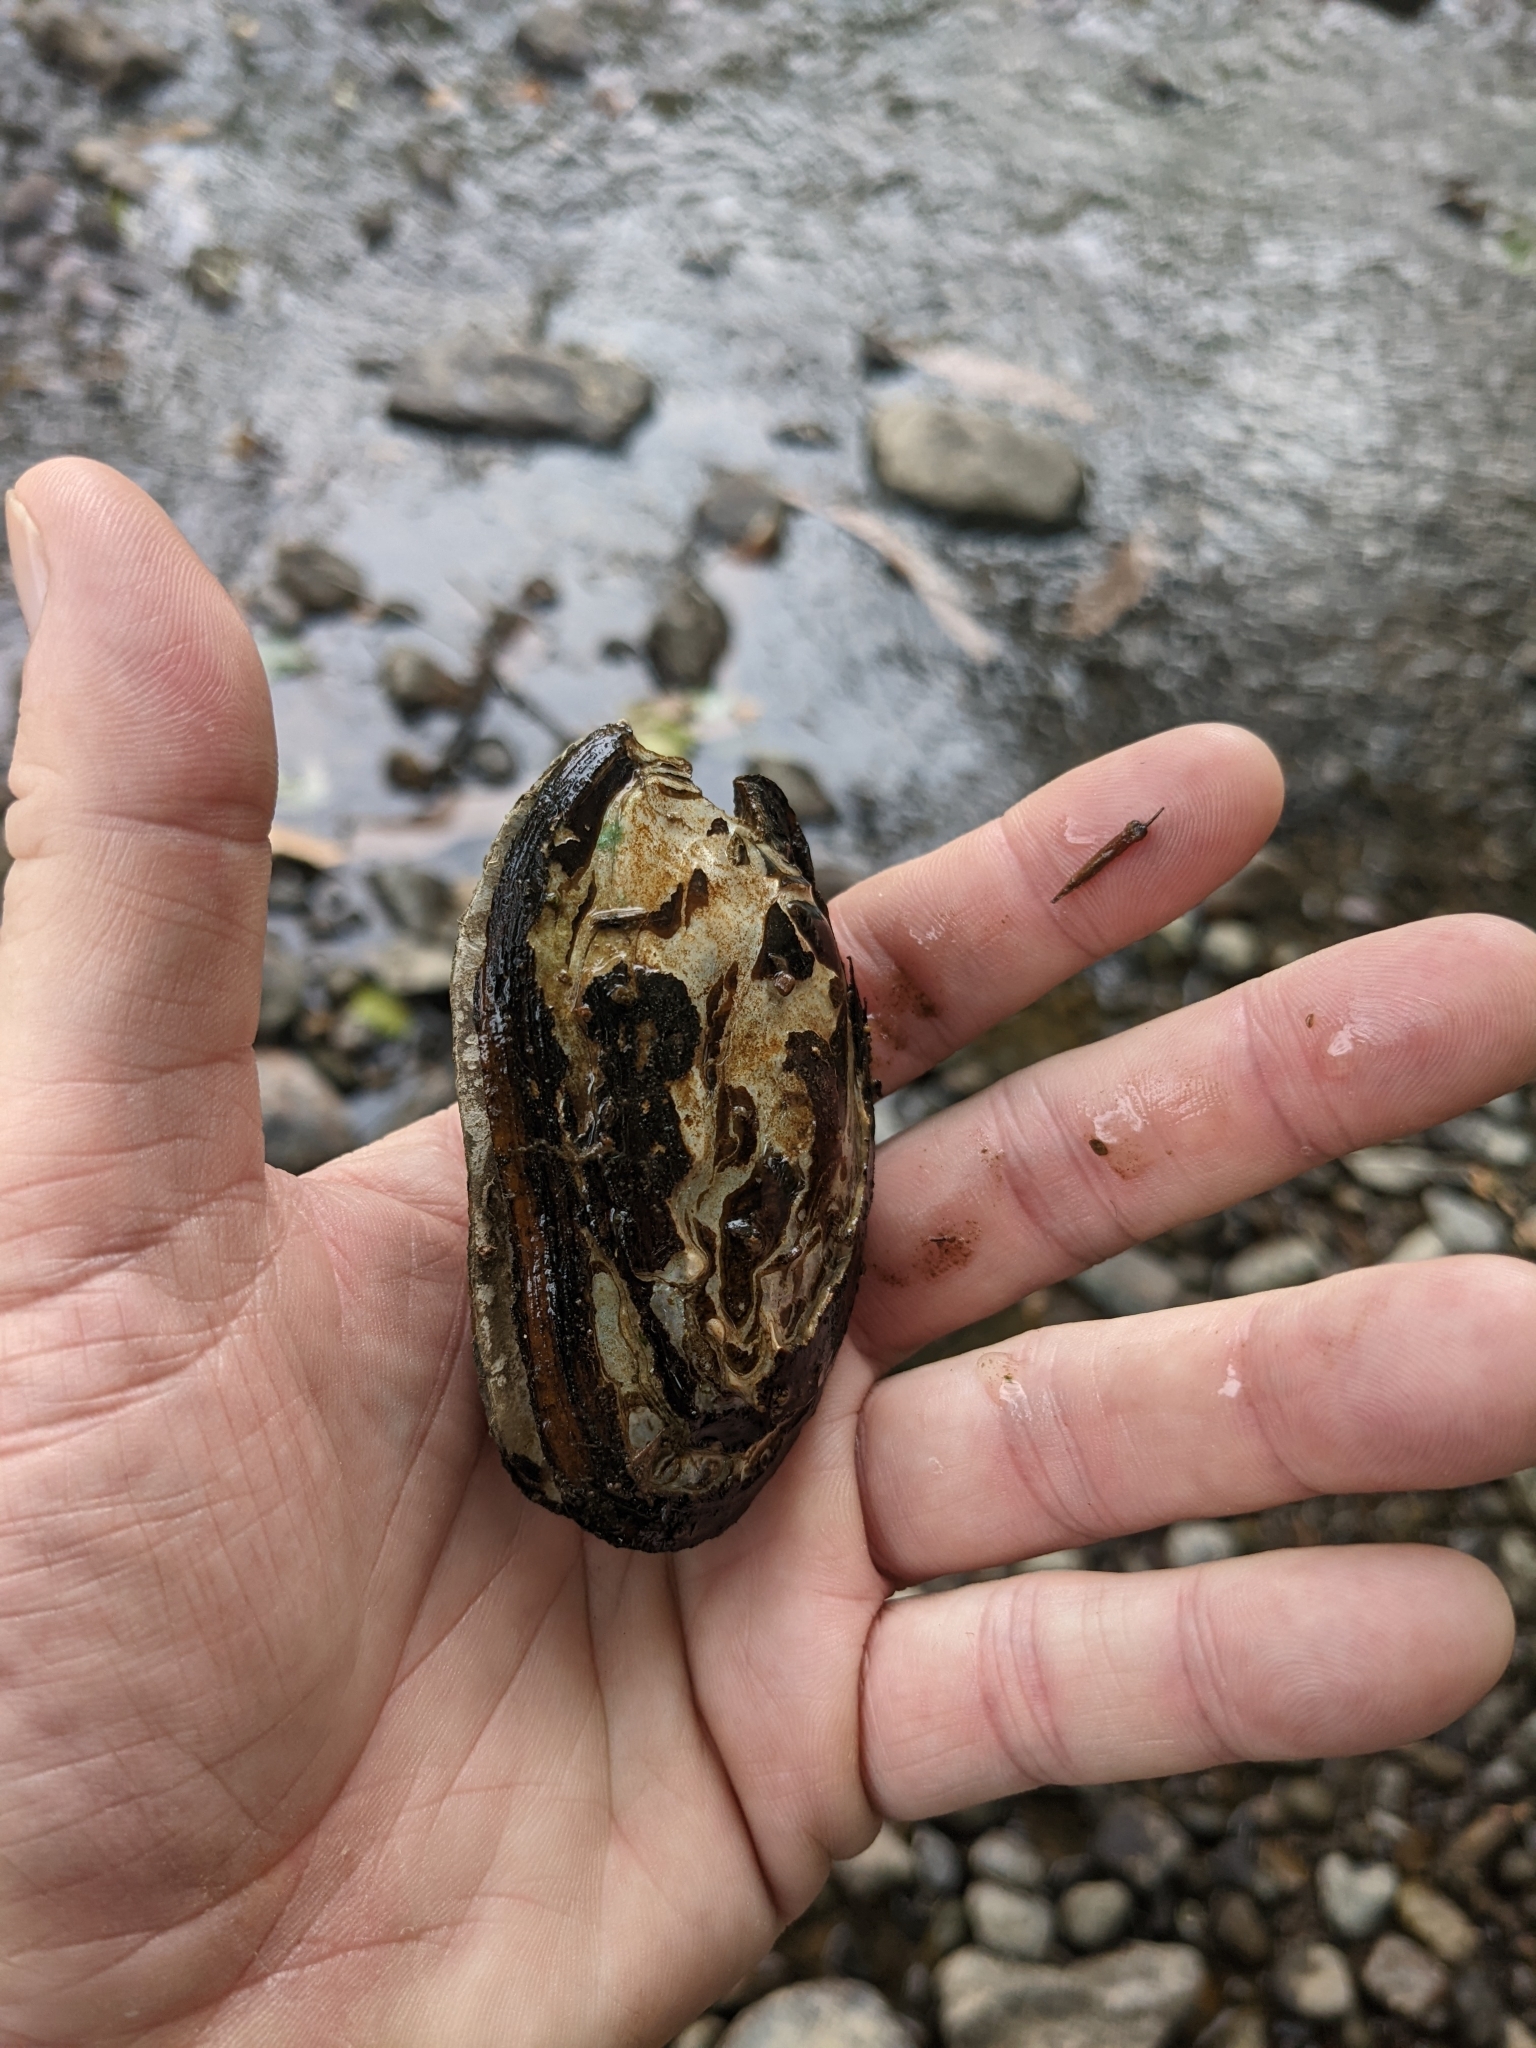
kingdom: Animalia
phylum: Mollusca
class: Bivalvia
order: Unionida
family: Unionidae
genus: Elliptio
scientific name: Elliptio complanata
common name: Eastern elliptio
